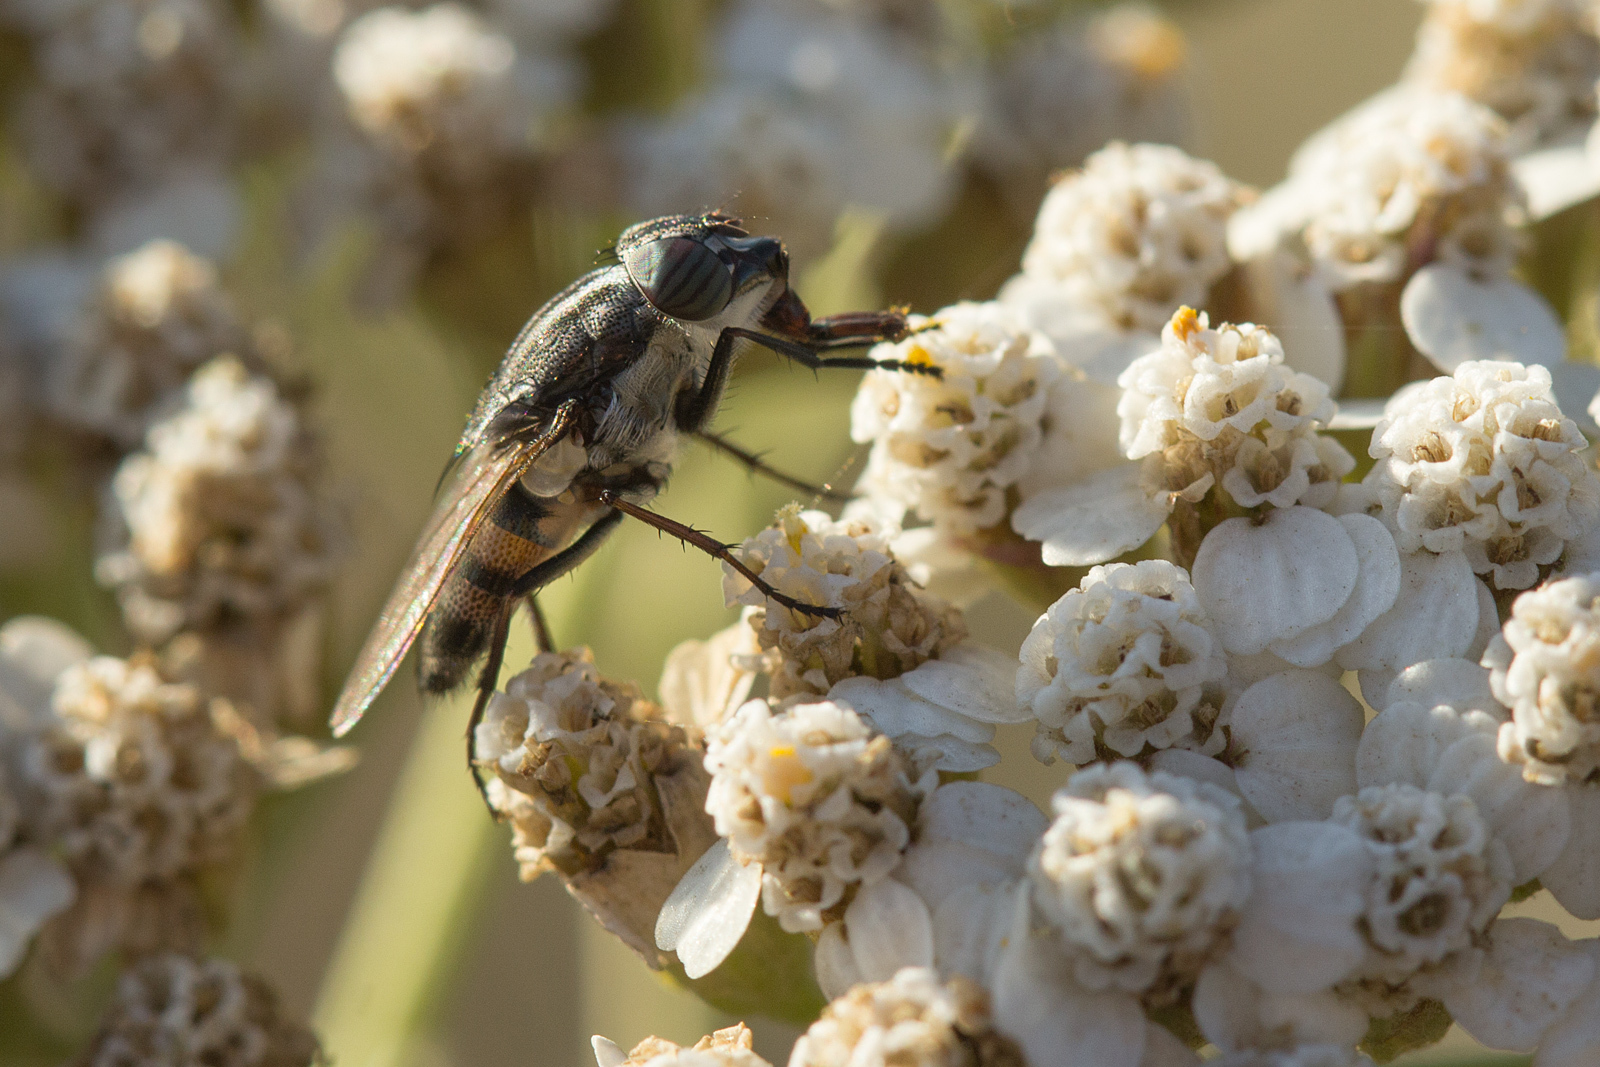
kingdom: Animalia
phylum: Arthropoda
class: Insecta
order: Diptera
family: Calliphoridae
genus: Stomorhina
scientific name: Stomorhina lunata
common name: Locust blowfly
